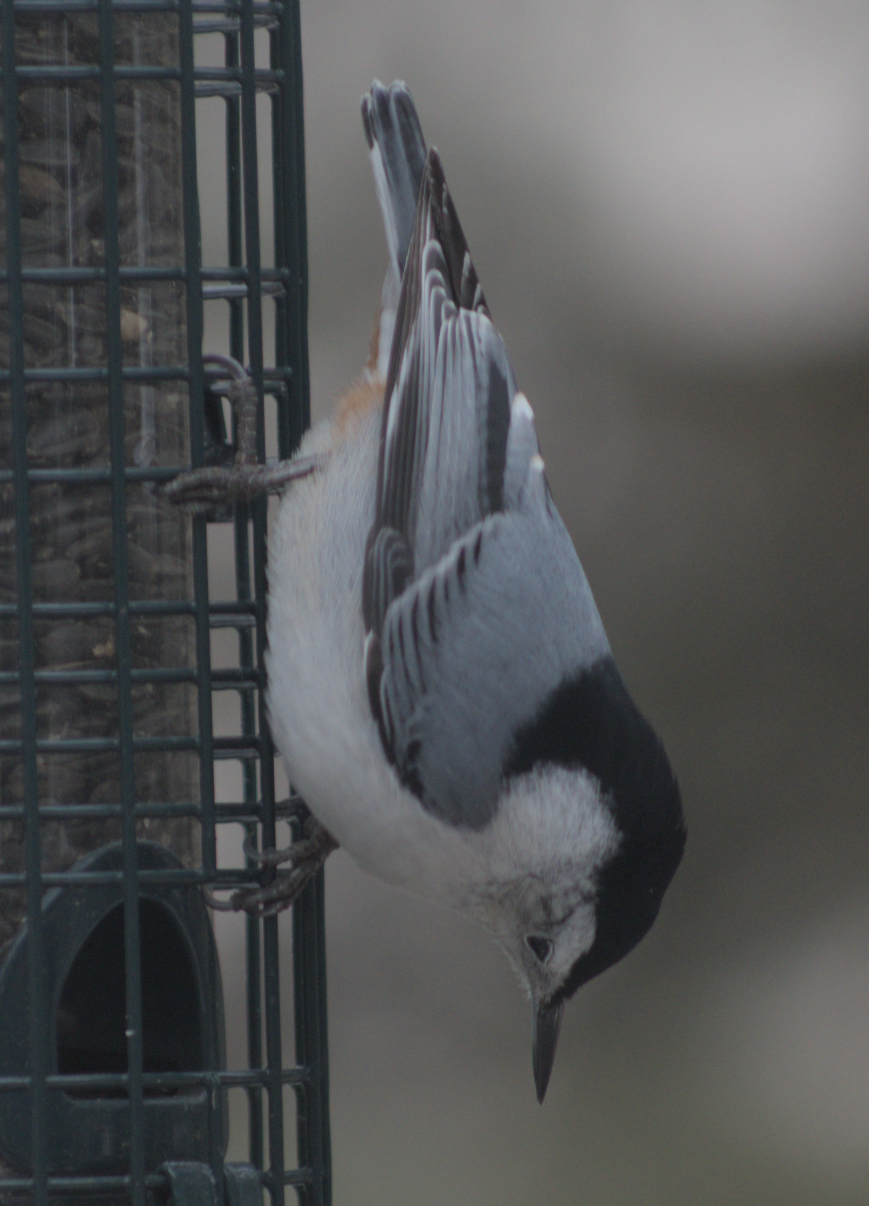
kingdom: Animalia
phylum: Chordata
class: Aves
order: Passeriformes
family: Sittidae
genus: Sitta
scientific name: Sitta carolinensis
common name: White-breasted nuthatch
